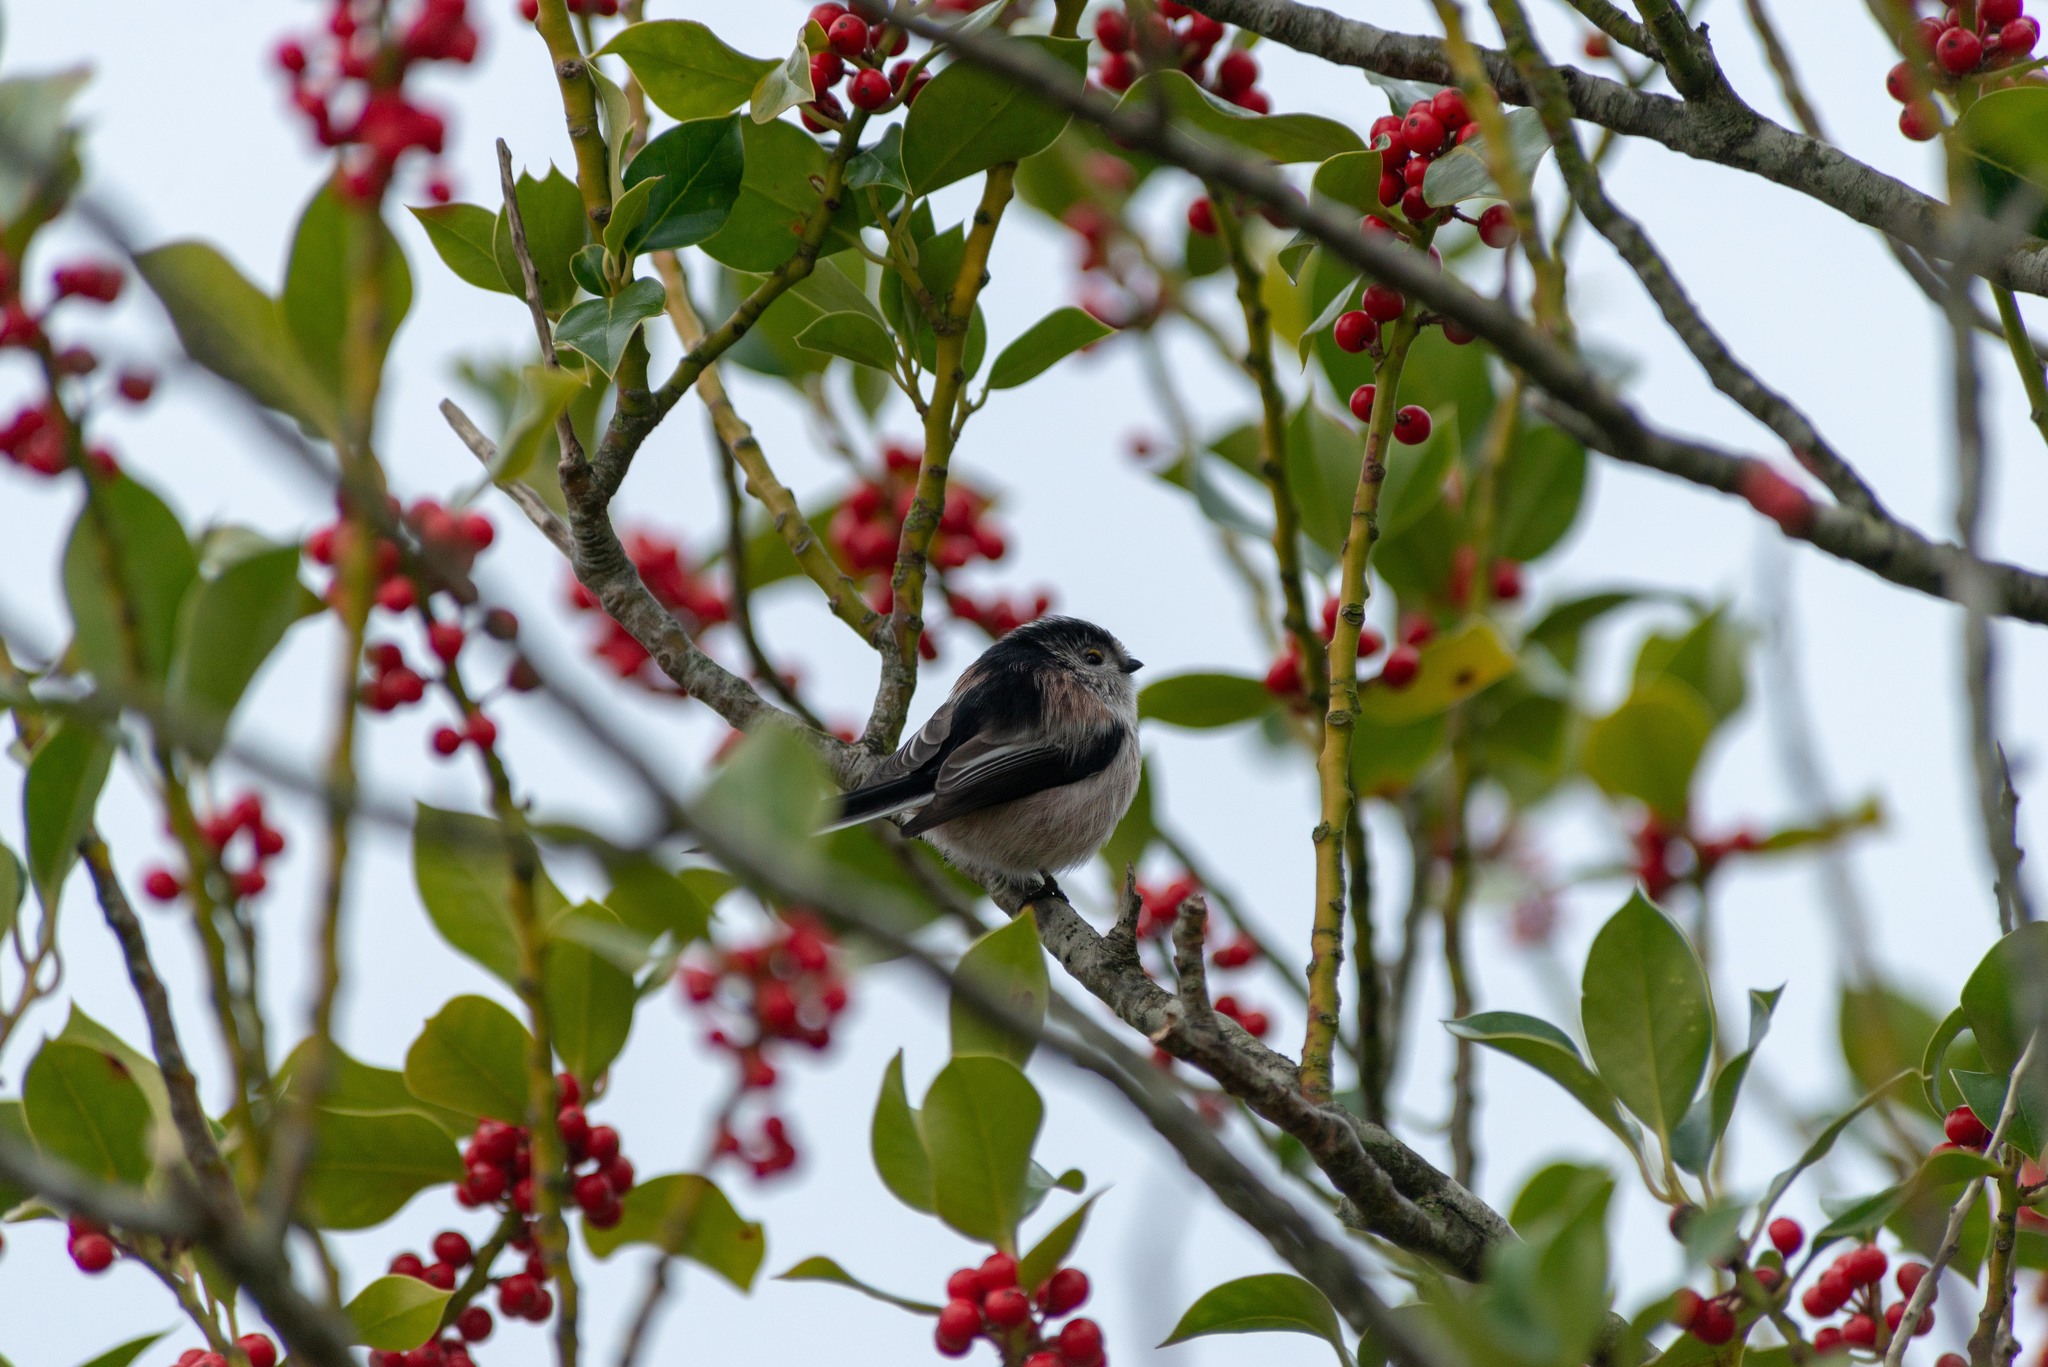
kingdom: Animalia
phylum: Chordata
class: Aves
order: Passeriformes
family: Aegithalidae
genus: Aegithalos
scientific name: Aegithalos caudatus
